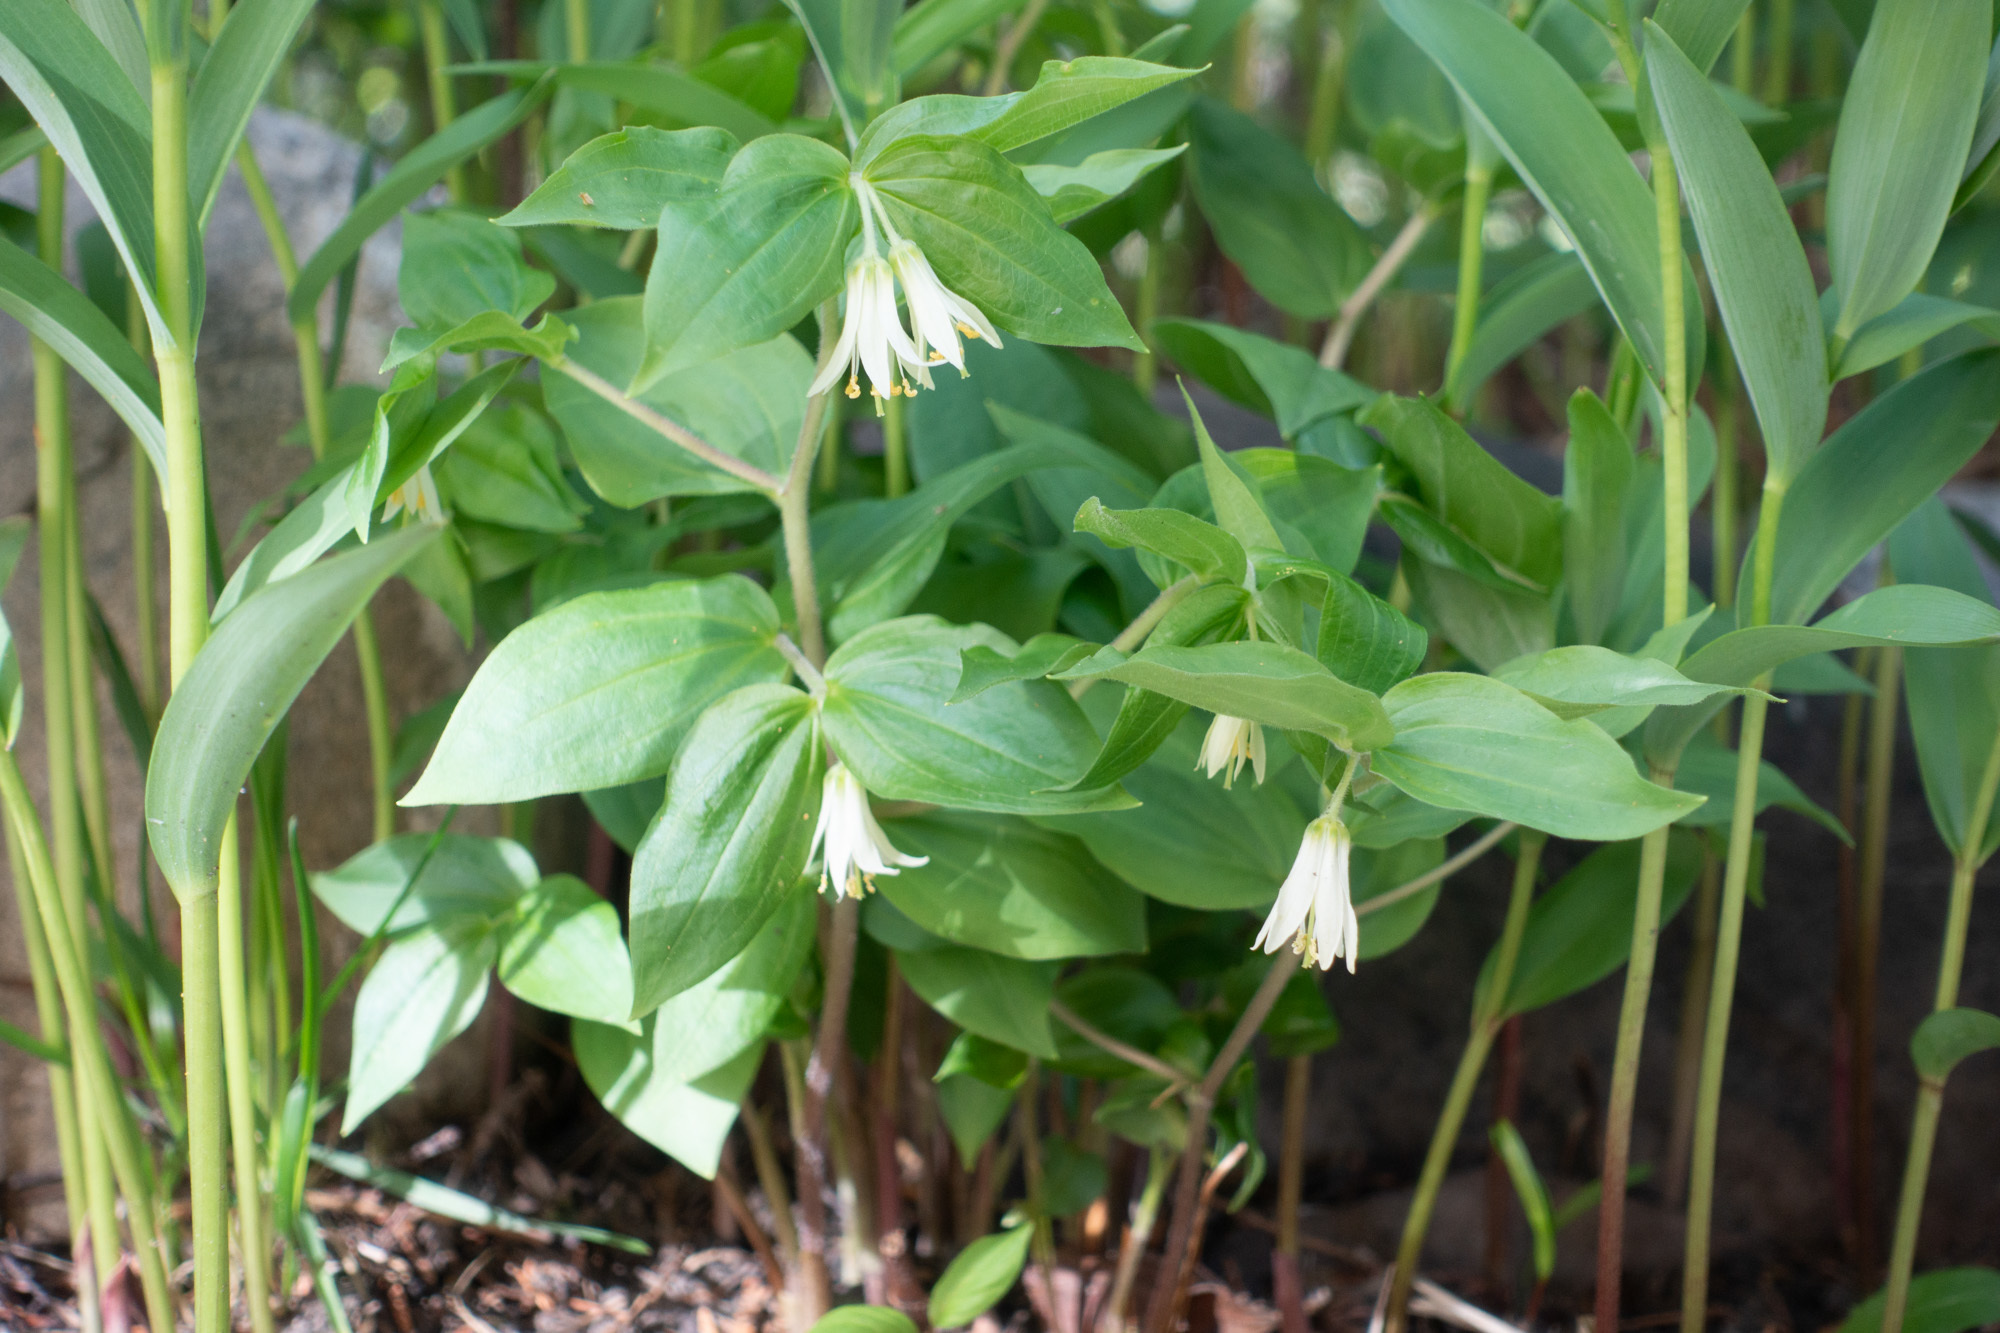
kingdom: Plantae
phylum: Tracheophyta
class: Liliopsida
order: Liliales
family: Liliaceae
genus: Prosartes
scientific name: Prosartes trachycarpa
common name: Rough-fruit fairy-bells
